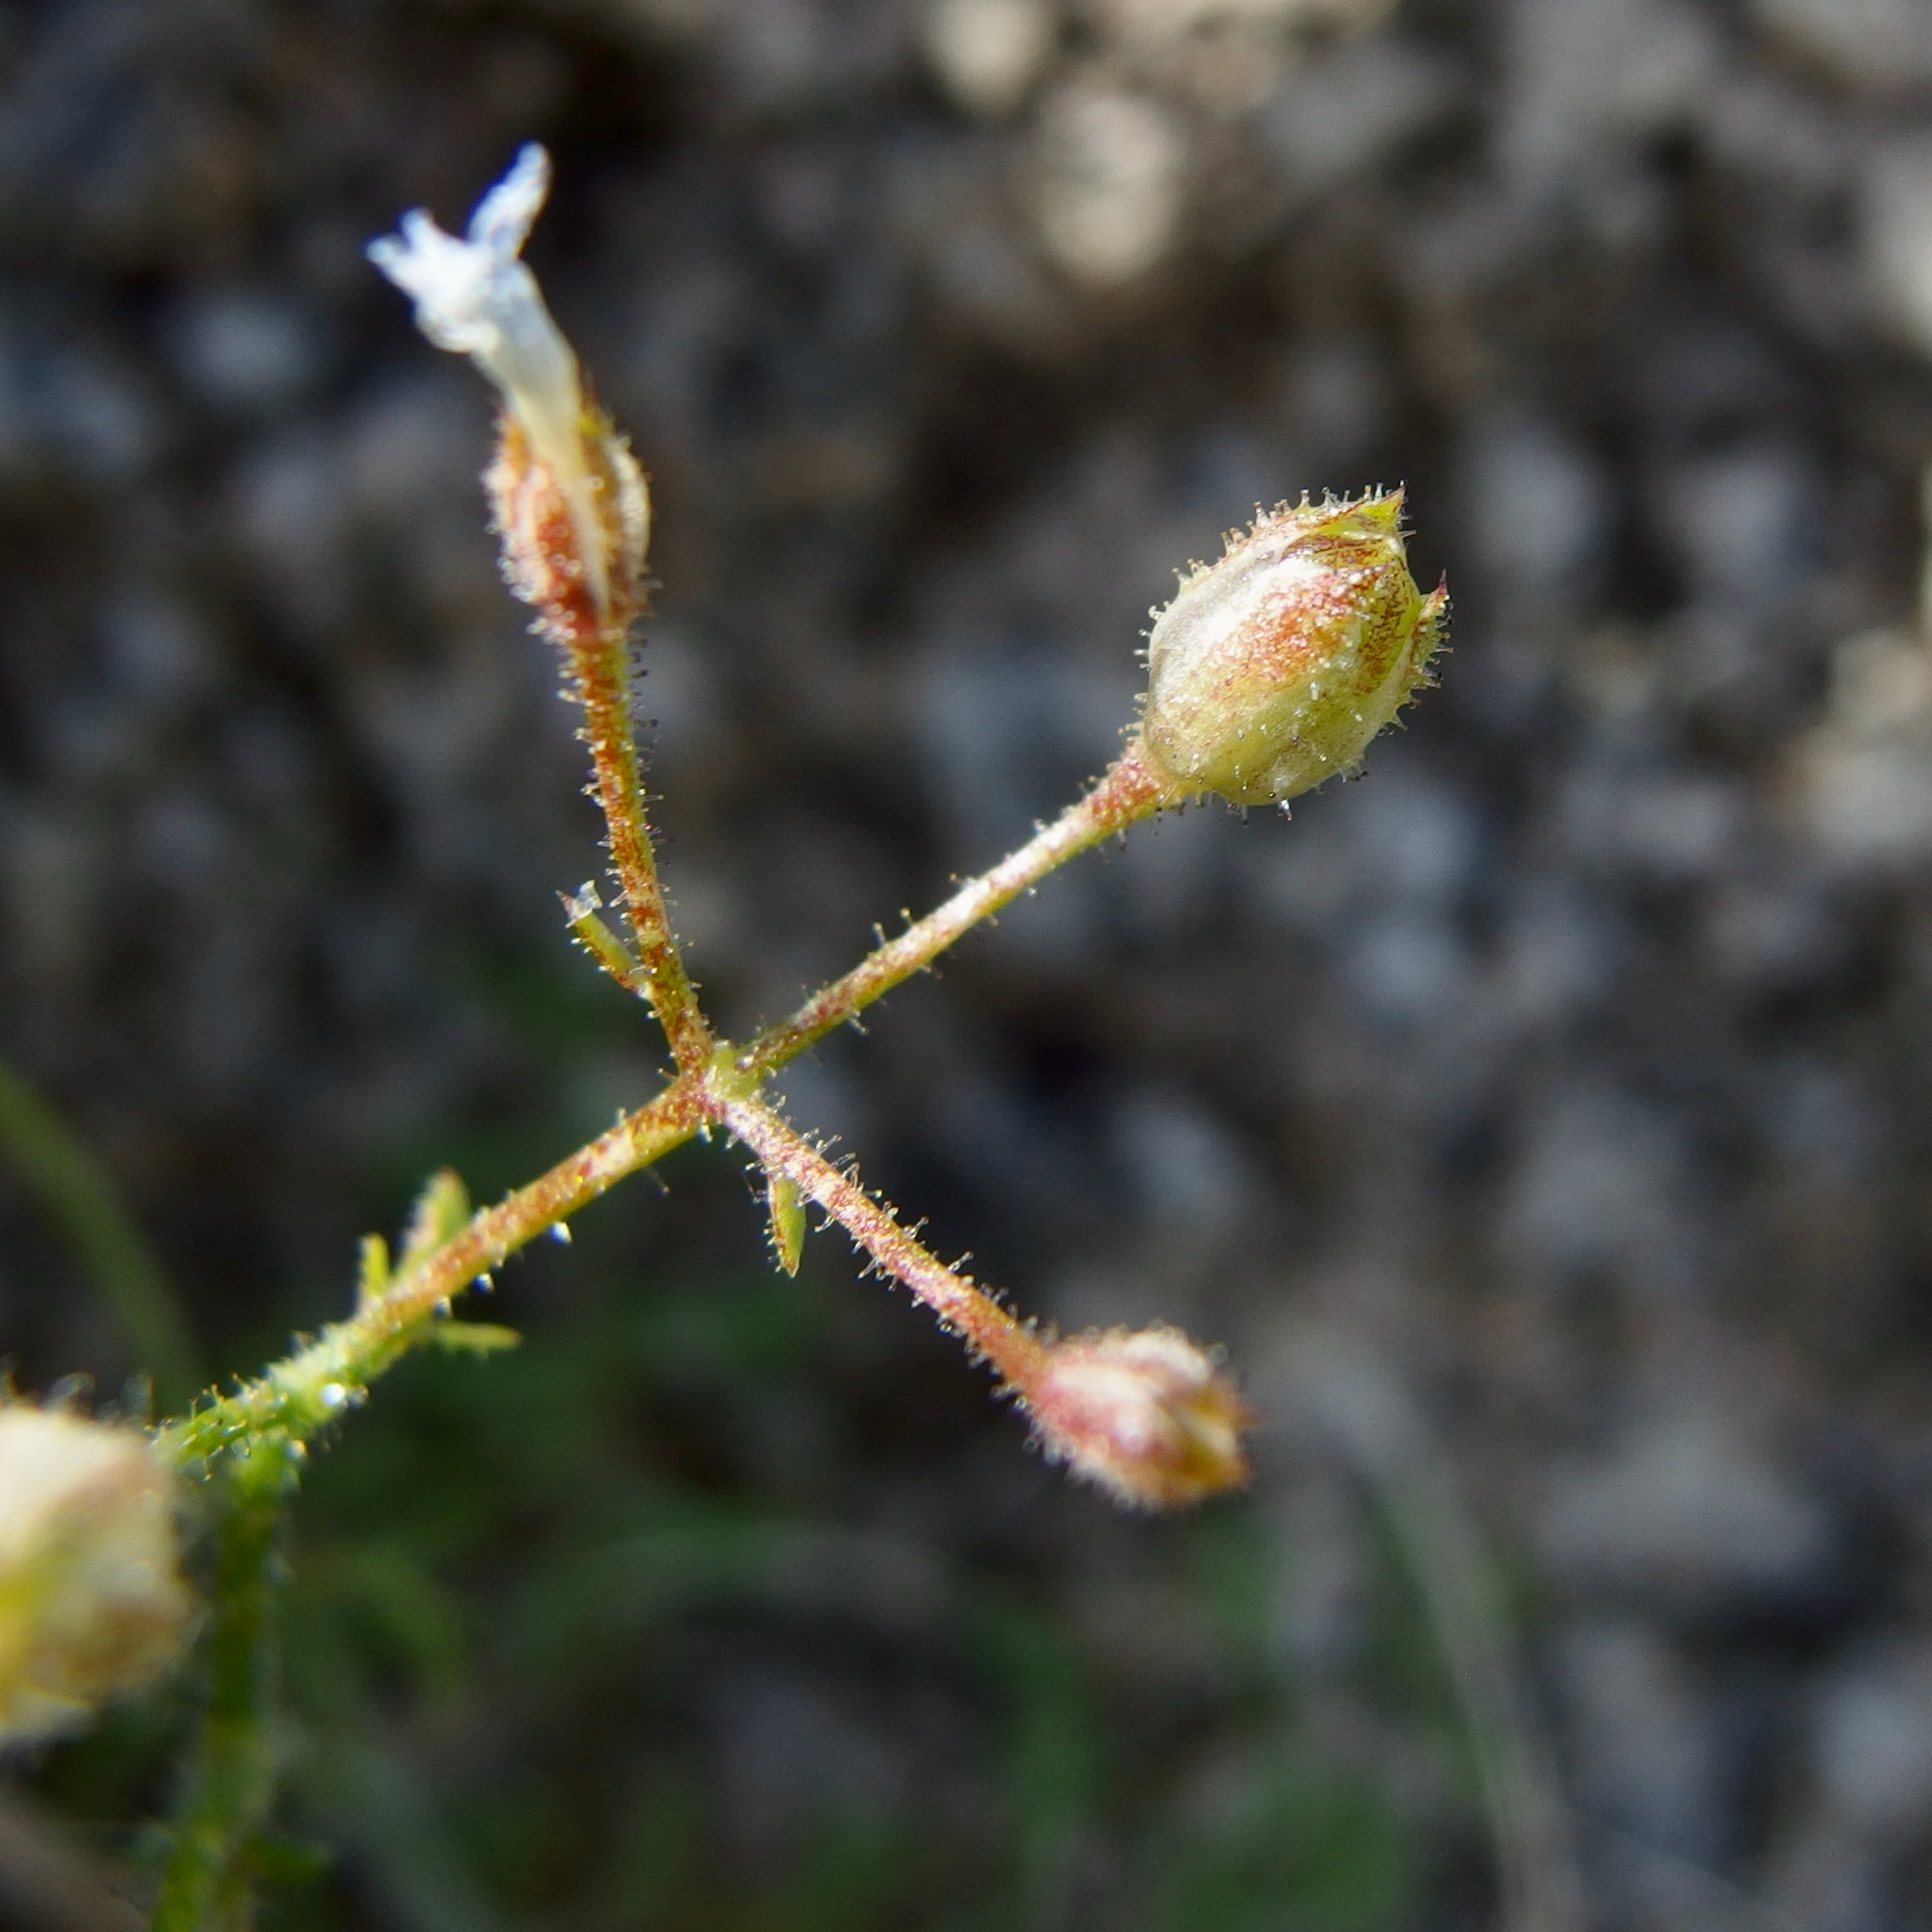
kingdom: Plantae
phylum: Tracheophyta
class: Magnoliopsida
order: Ericales
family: Polemoniaceae
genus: Gilia
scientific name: Gilia stellata
